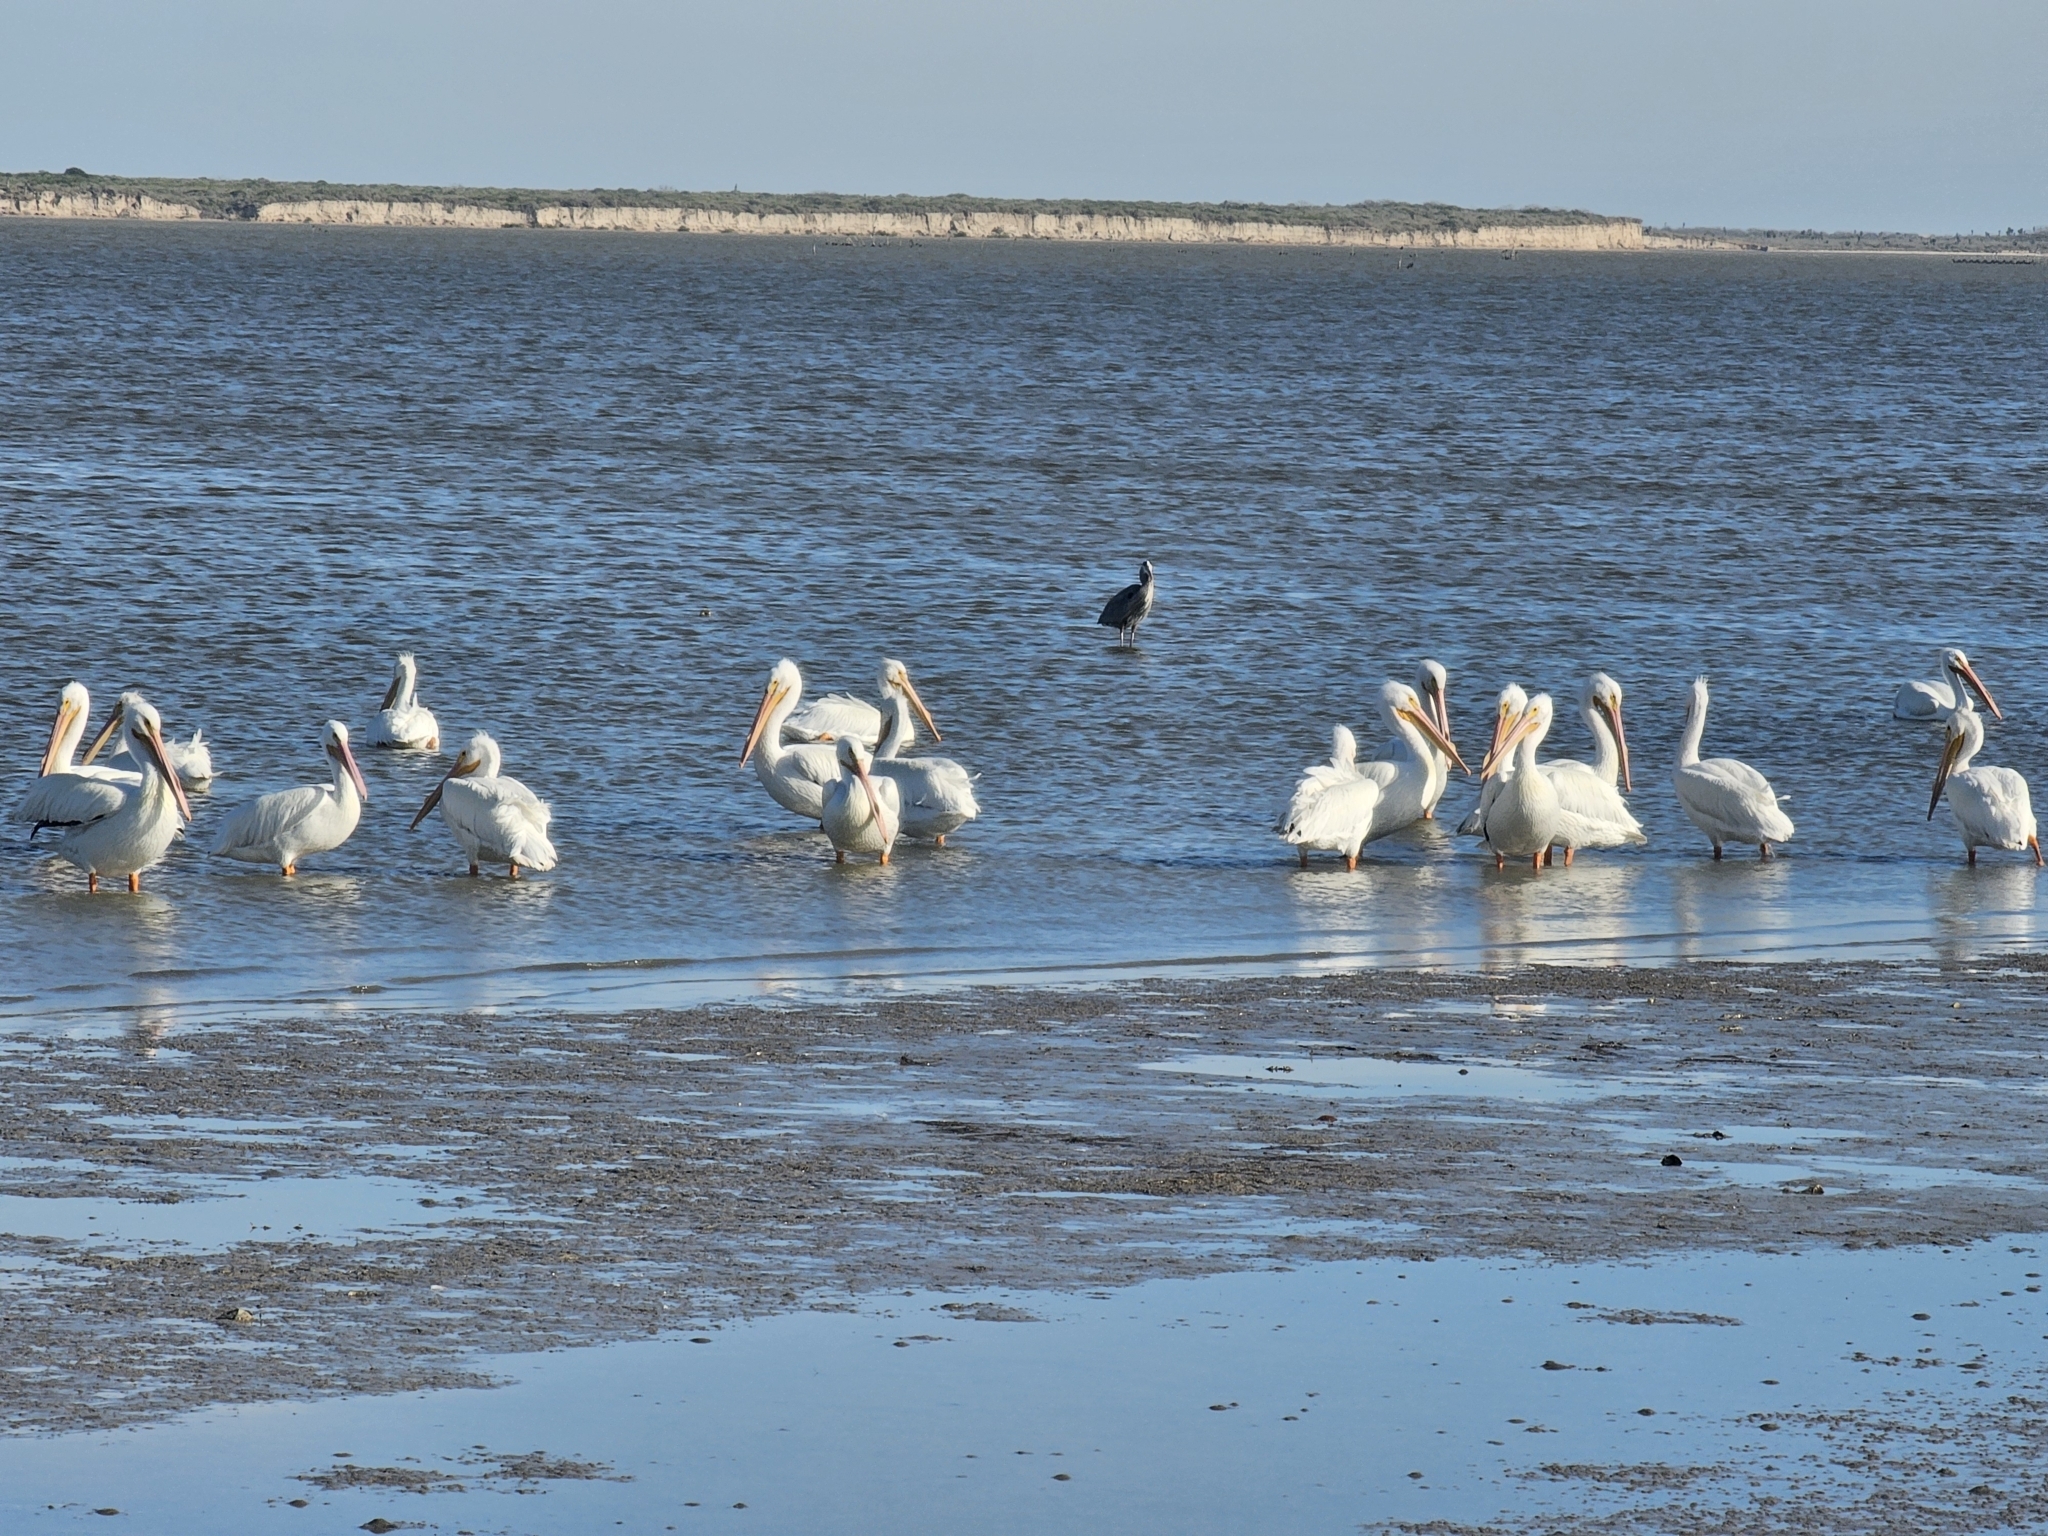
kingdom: Animalia
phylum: Chordata
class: Aves
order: Pelecaniformes
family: Pelecanidae
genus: Pelecanus
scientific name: Pelecanus erythrorhynchos
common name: American white pelican
